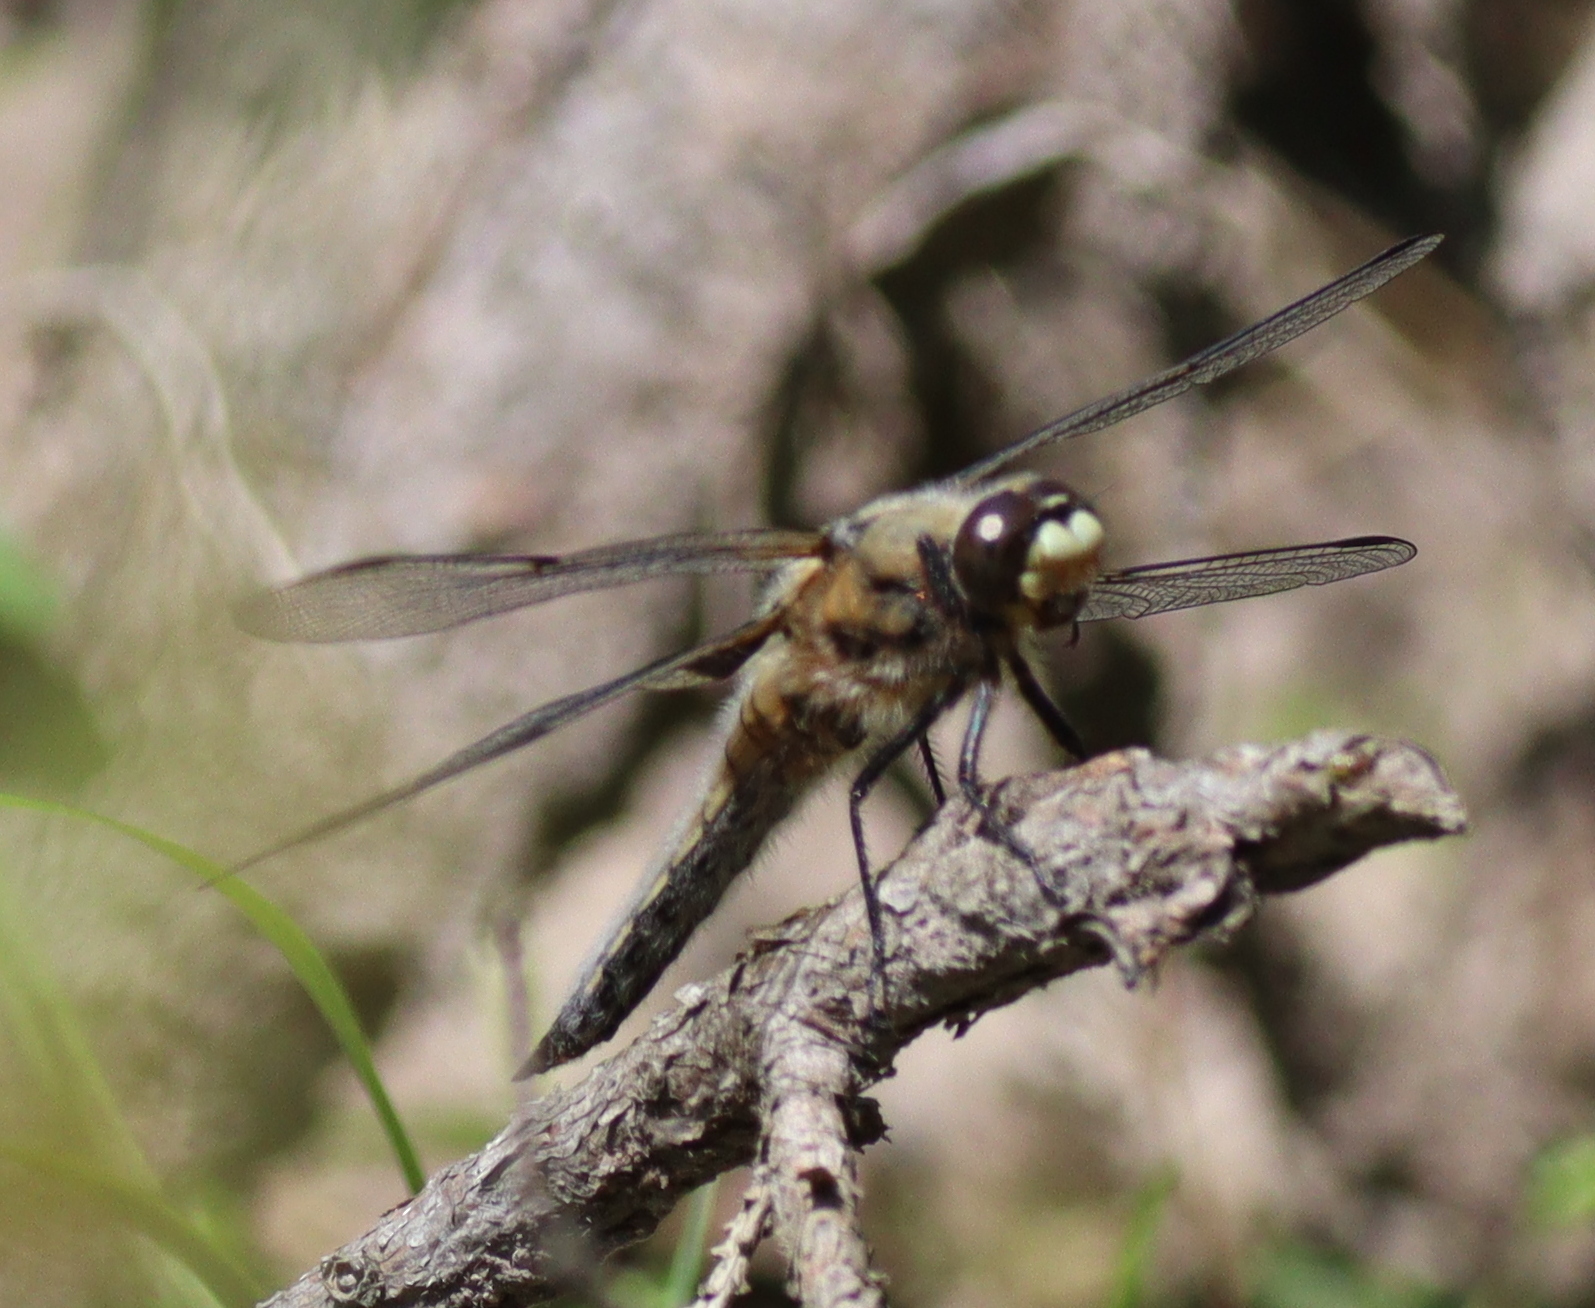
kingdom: Animalia
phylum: Arthropoda
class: Insecta
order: Odonata
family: Libellulidae
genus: Libellula
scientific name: Libellula quadrimaculata
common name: Four-spotted chaser
